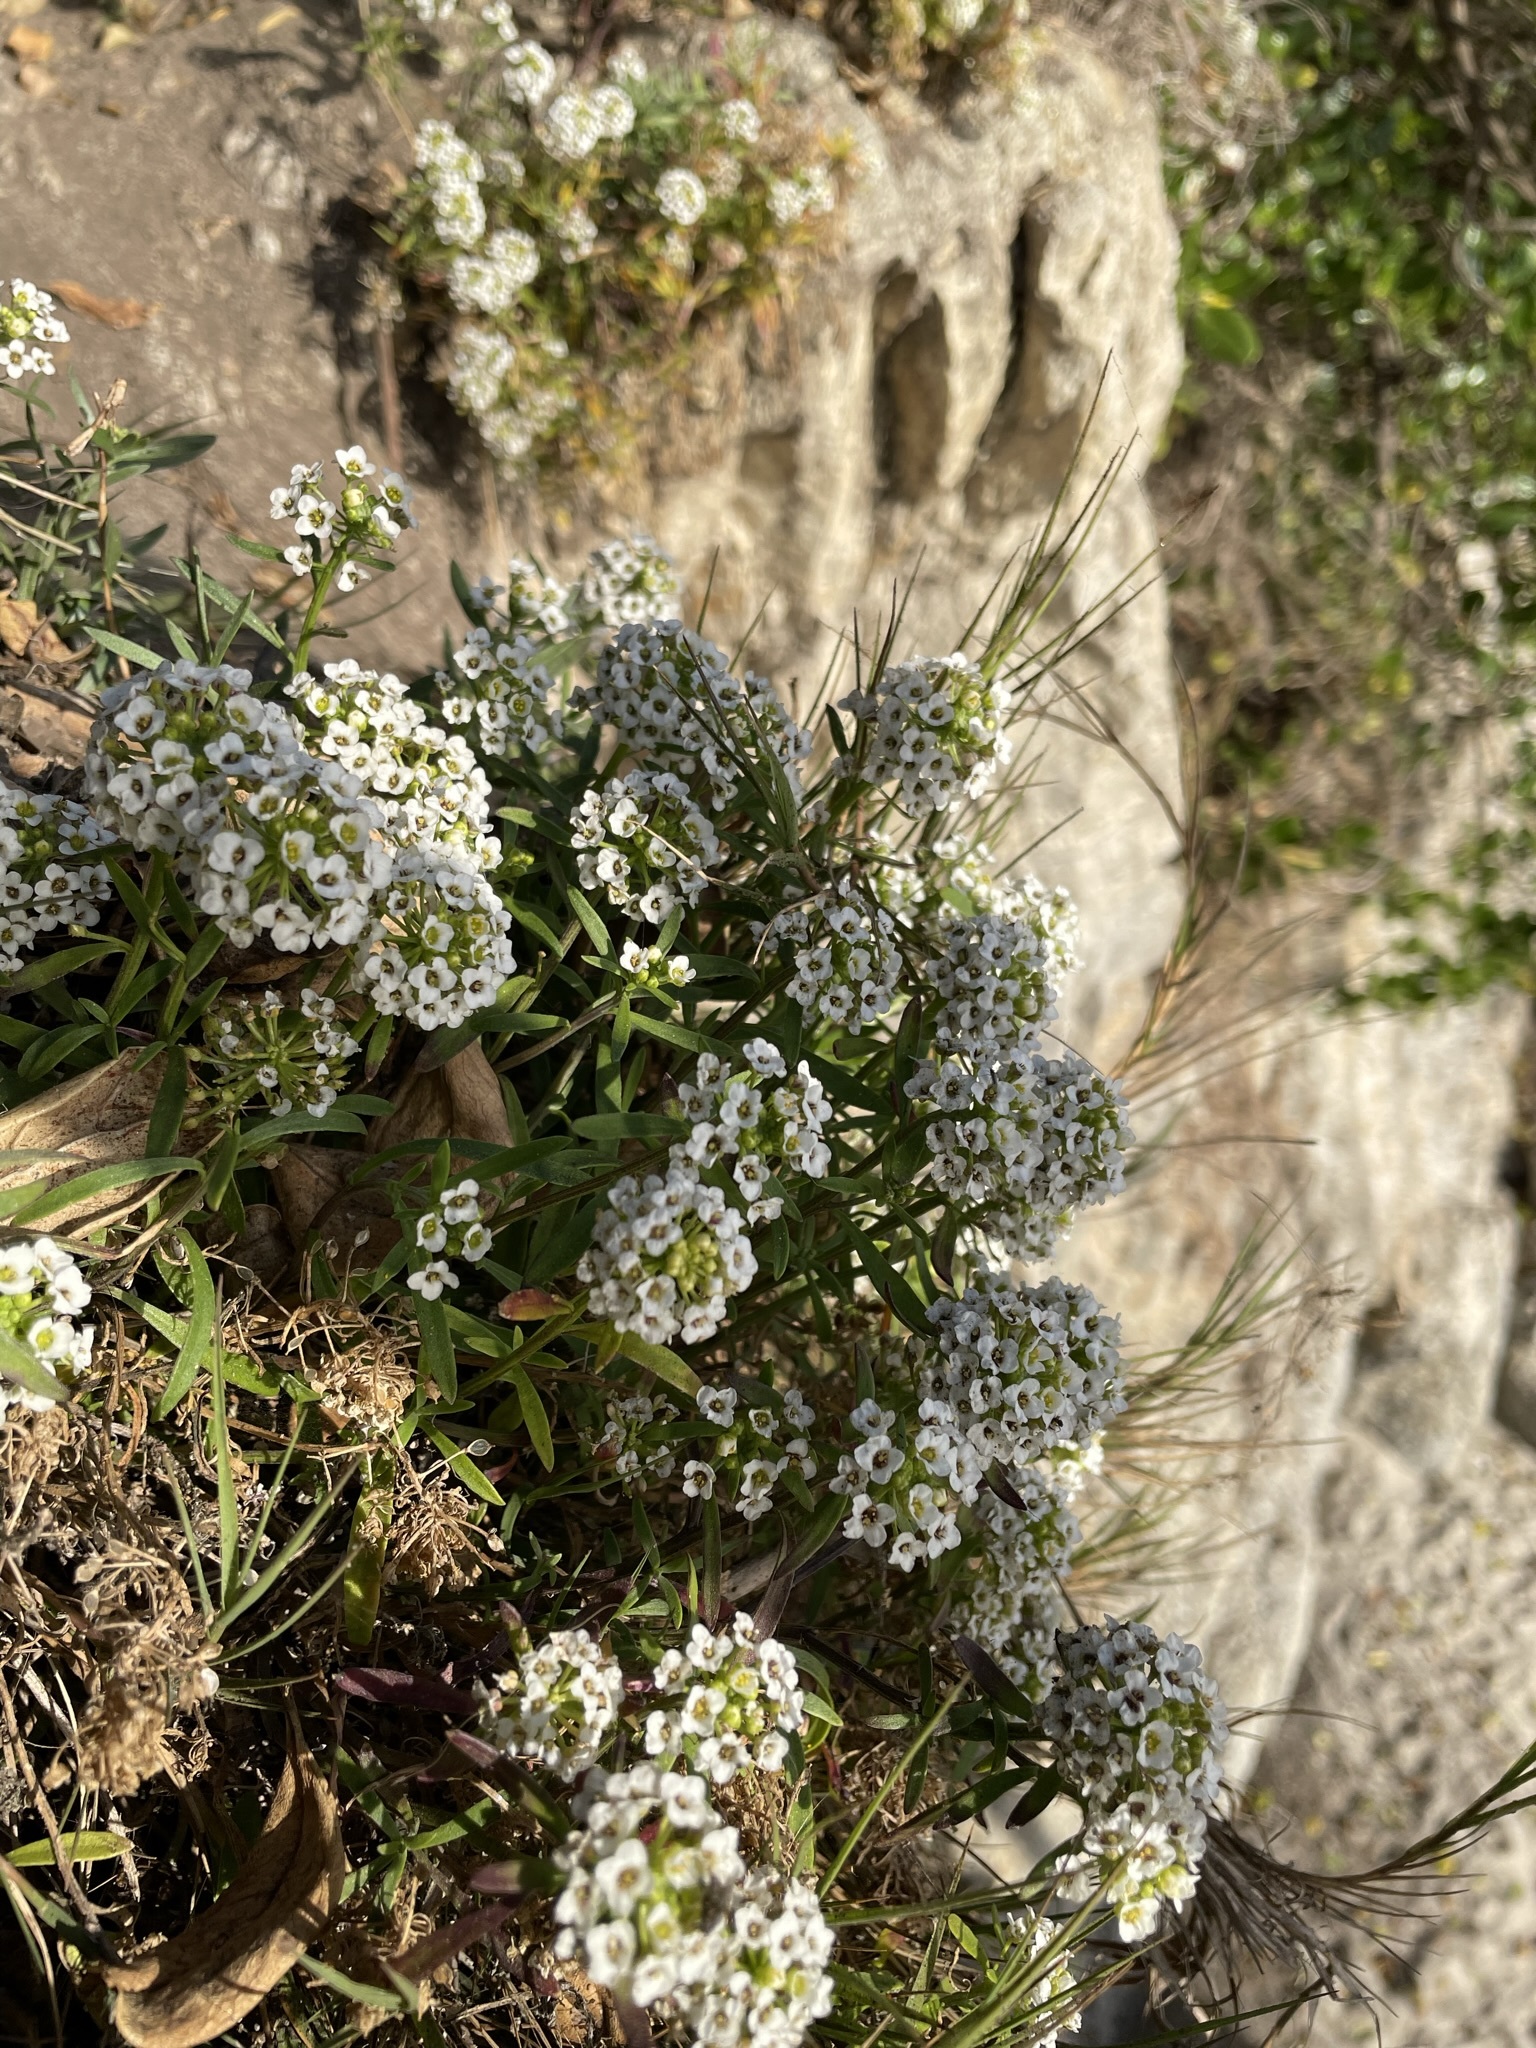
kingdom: Plantae
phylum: Tracheophyta
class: Magnoliopsida
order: Brassicales
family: Brassicaceae
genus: Lobularia
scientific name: Lobularia maritima
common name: Sweet alison
